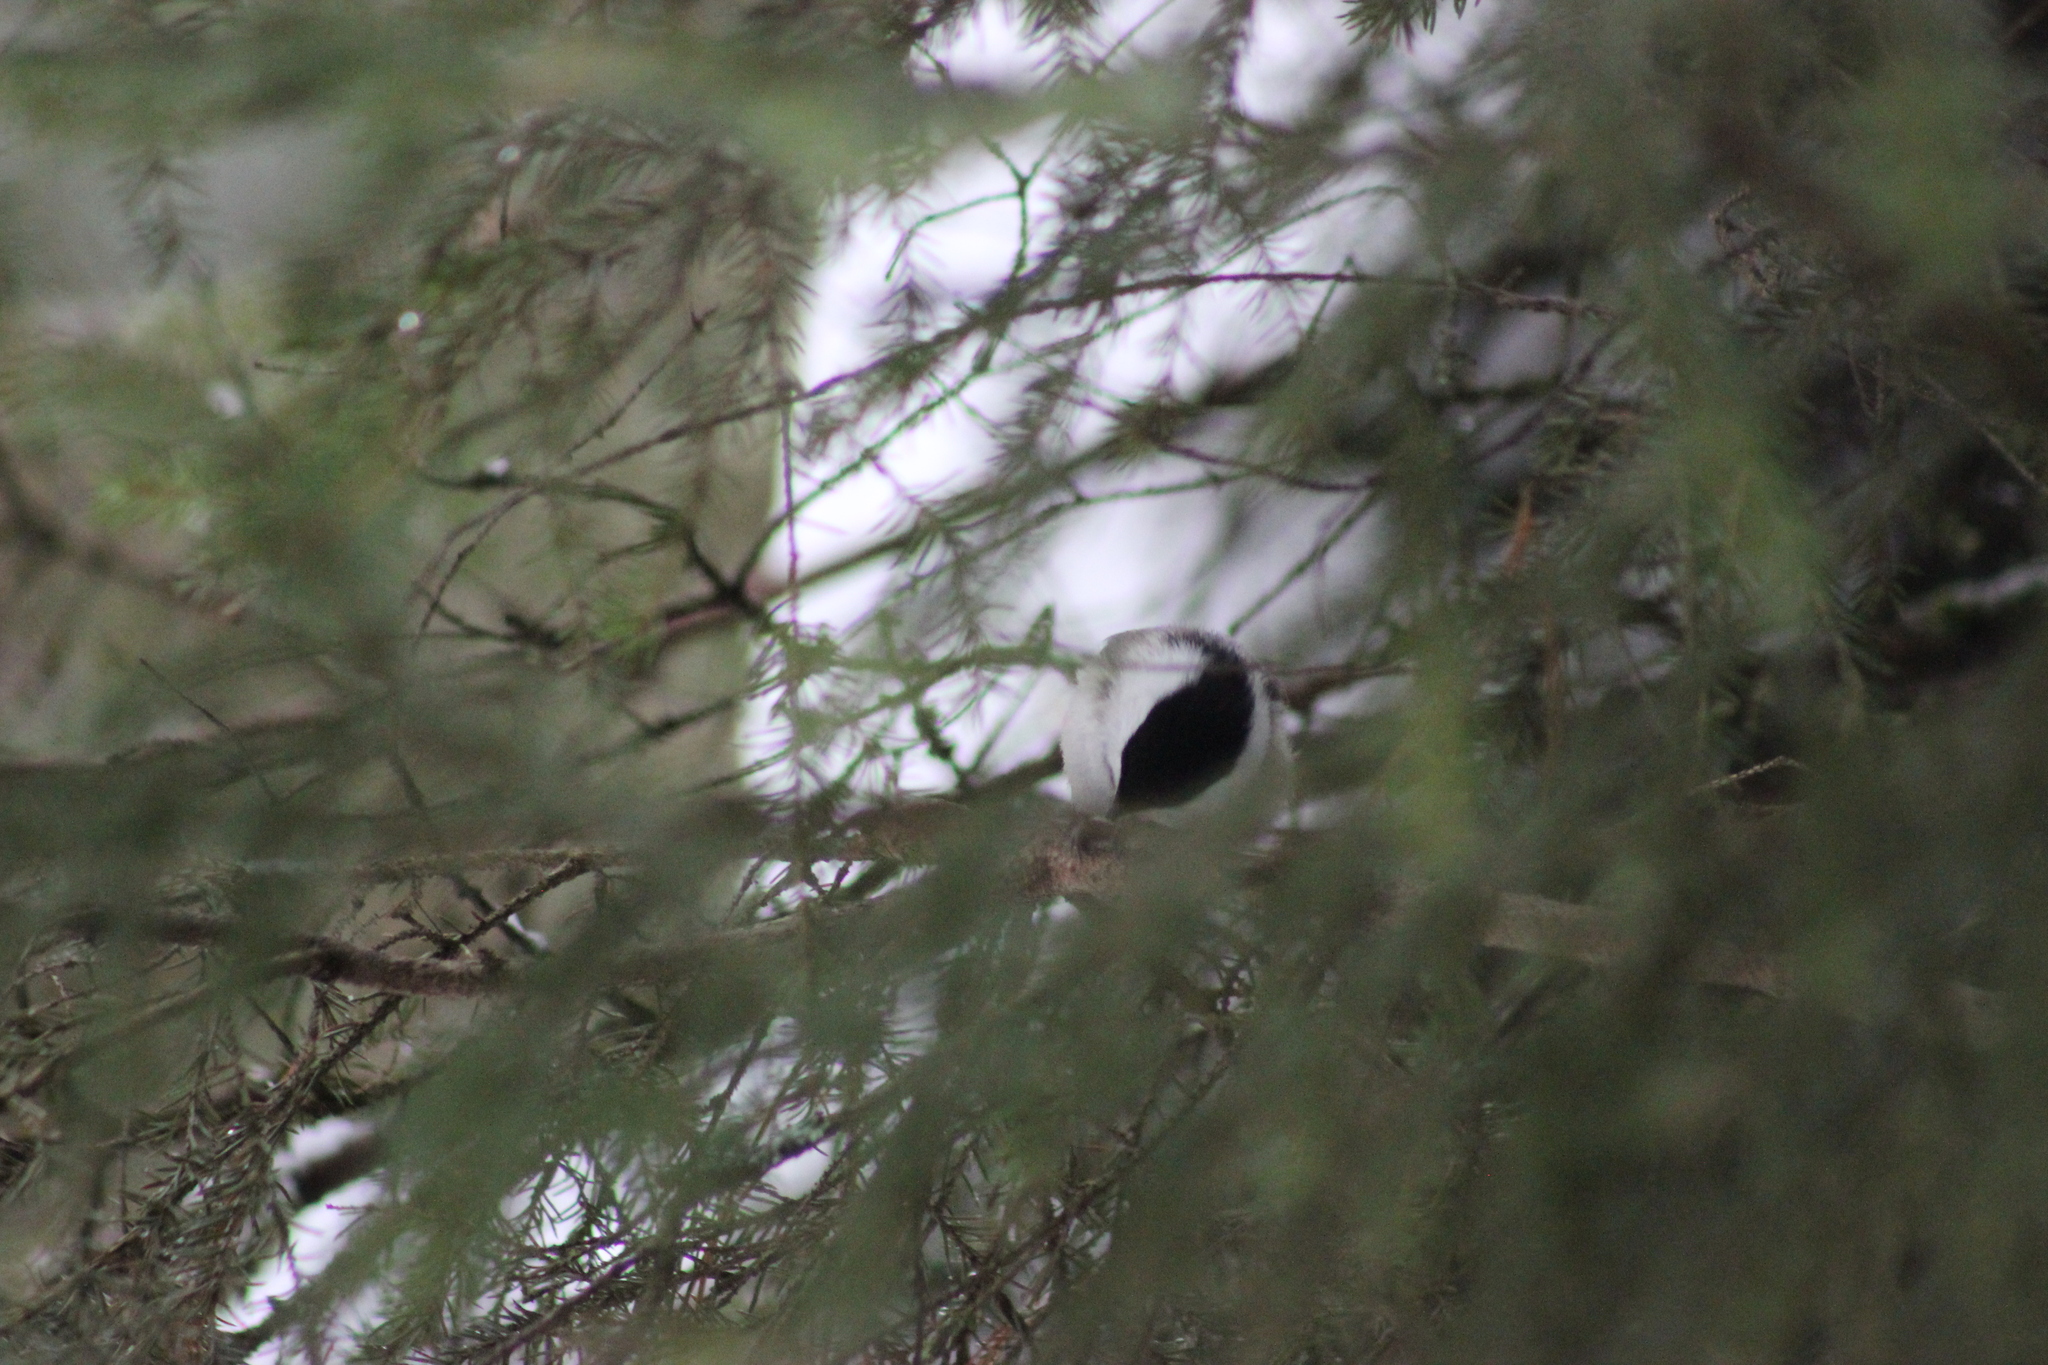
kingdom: Animalia
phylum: Chordata
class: Aves
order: Passeriformes
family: Paridae
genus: Poecile
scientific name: Poecile montanus
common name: Willow tit
